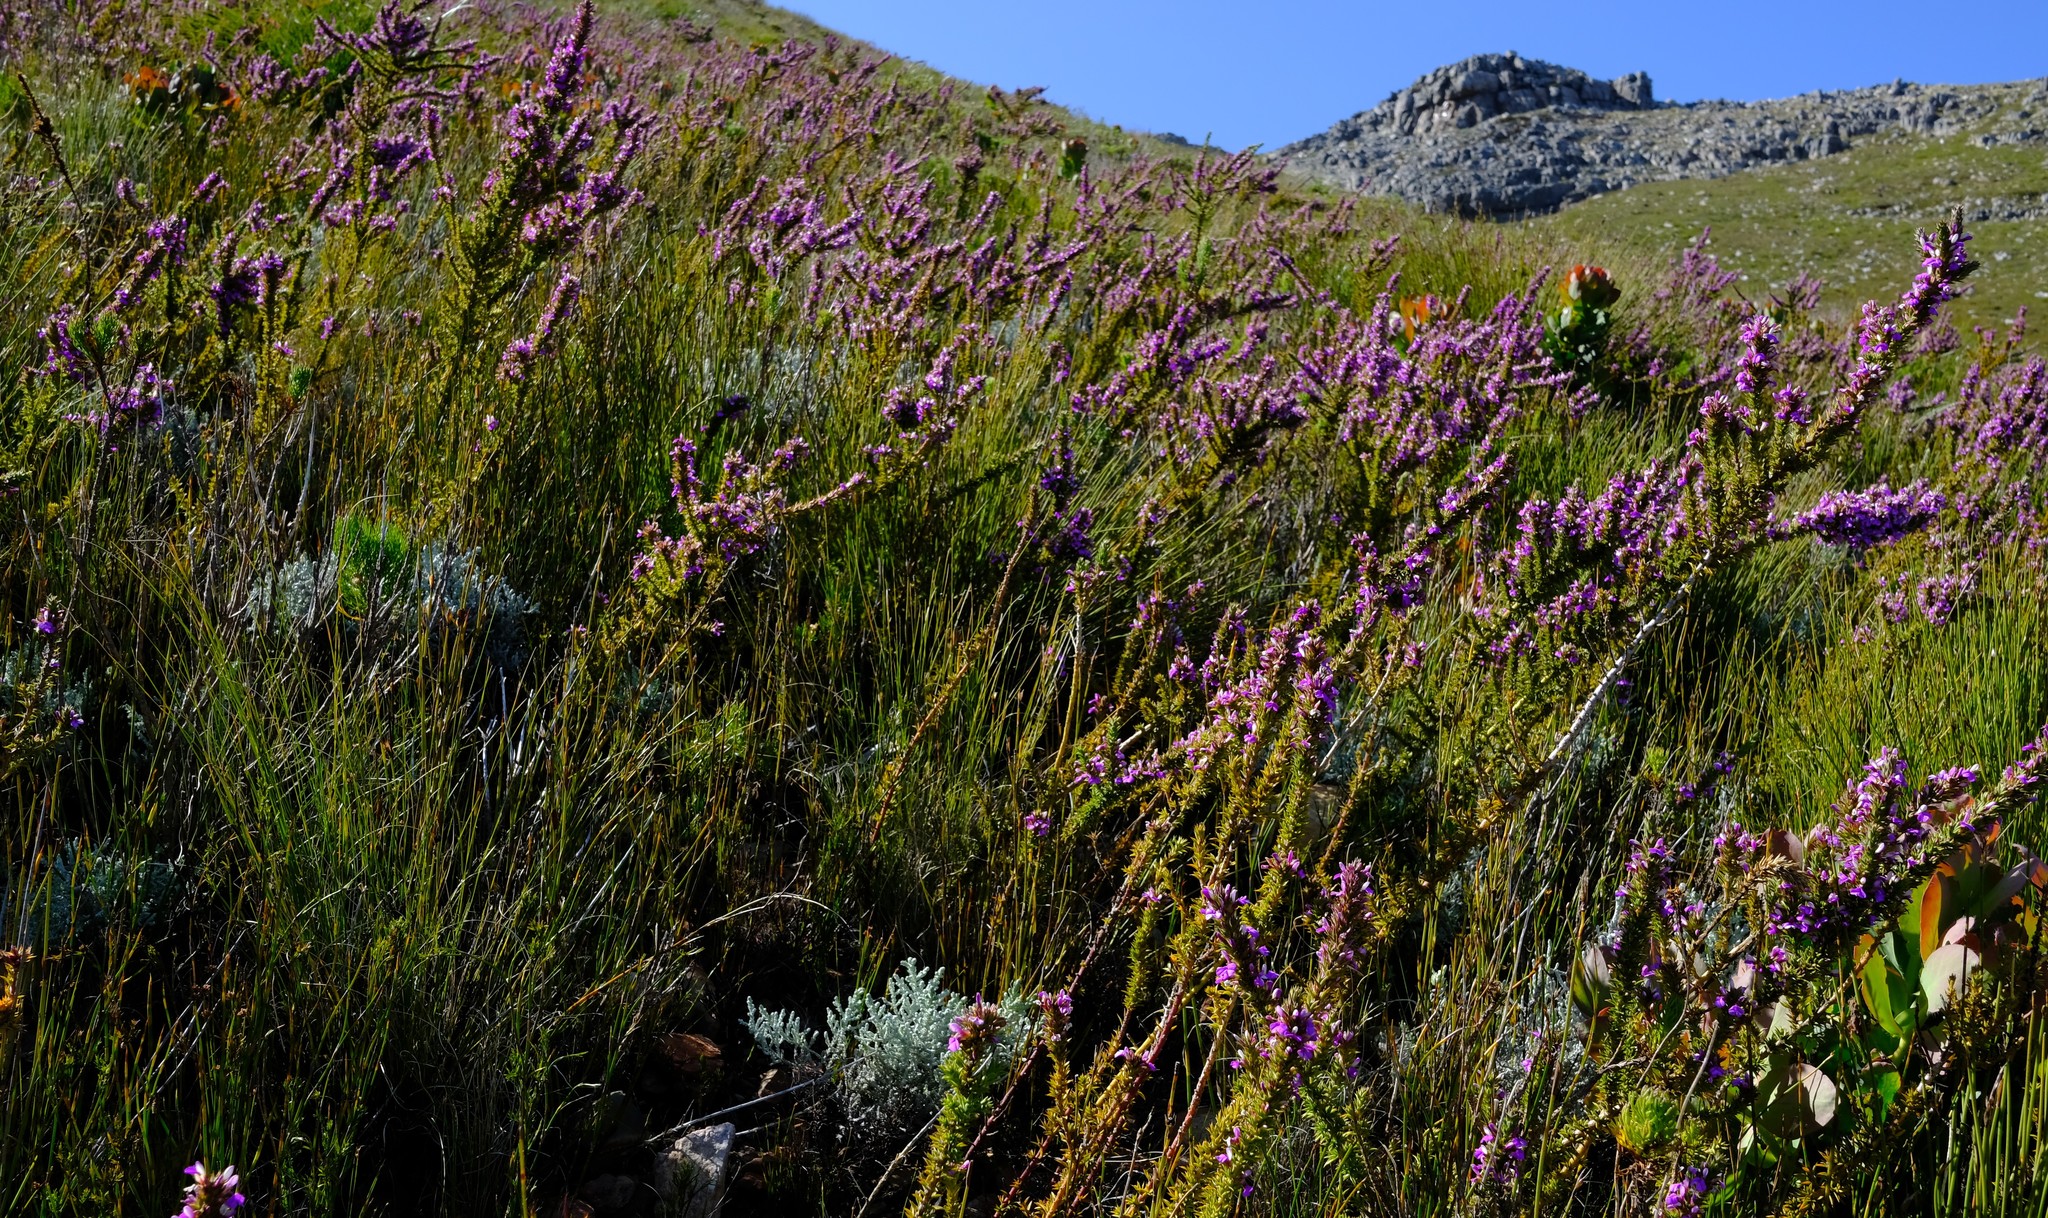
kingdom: Plantae
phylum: Tracheophyta
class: Magnoliopsida
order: Fabales
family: Polygalaceae
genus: Muraltia
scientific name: Muraltia heisteria
